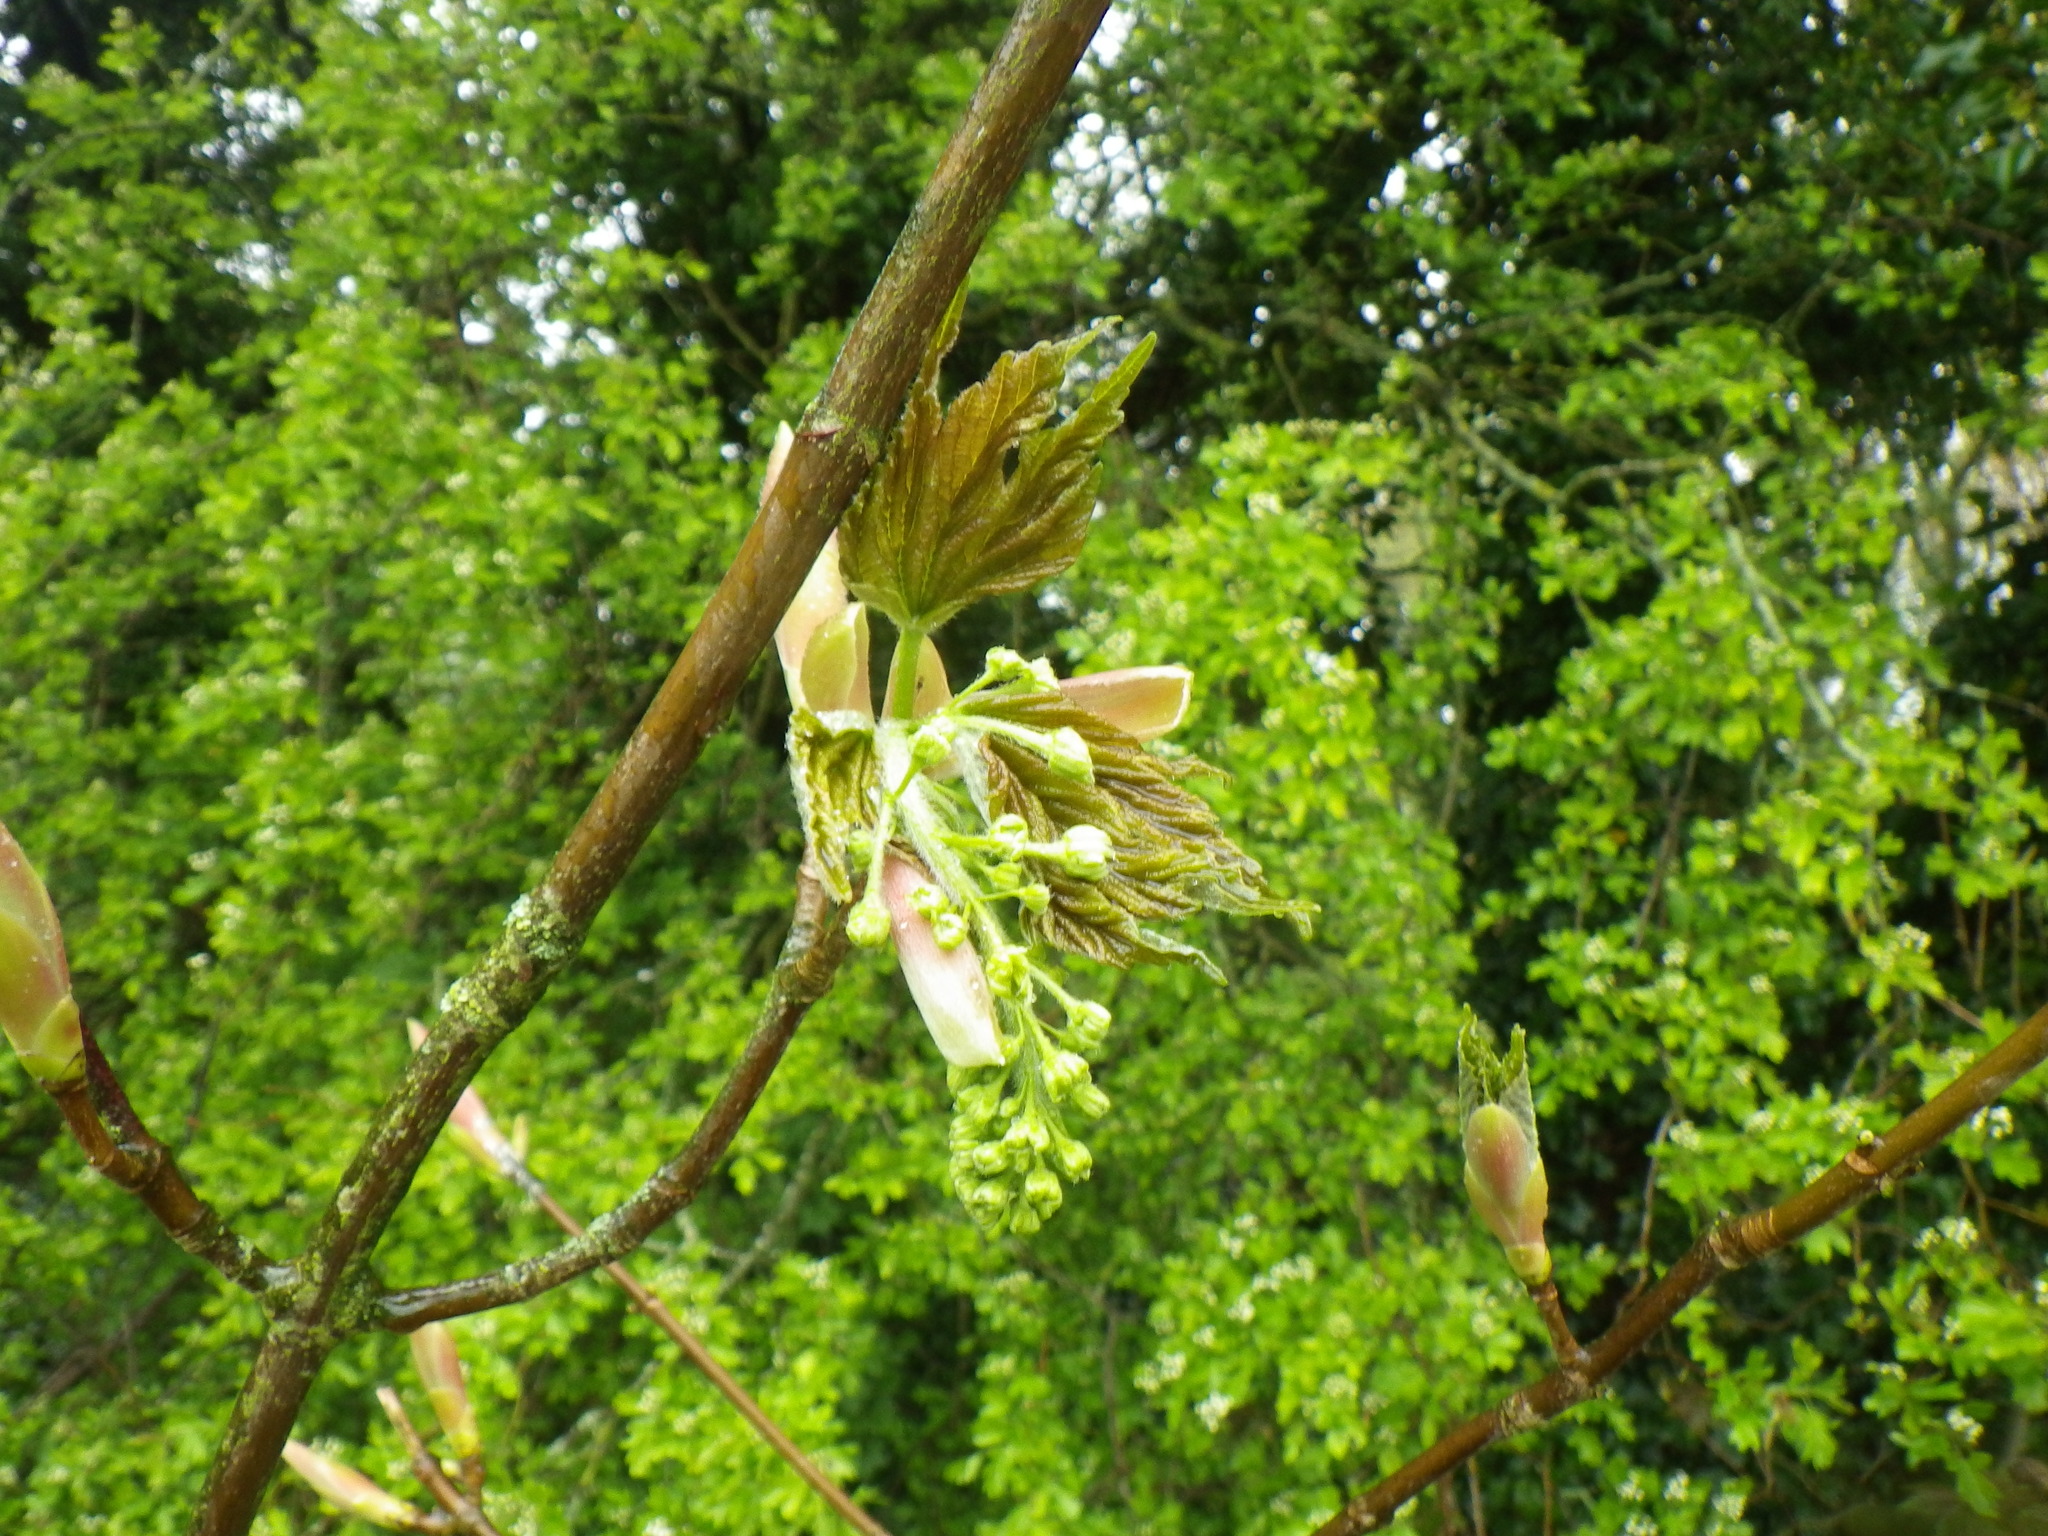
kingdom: Plantae
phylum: Tracheophyta
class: Magnoliopsida
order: Sapindales
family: Sapindaceae
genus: Acer
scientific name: Acer pseudoplatanus
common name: Sycamore
